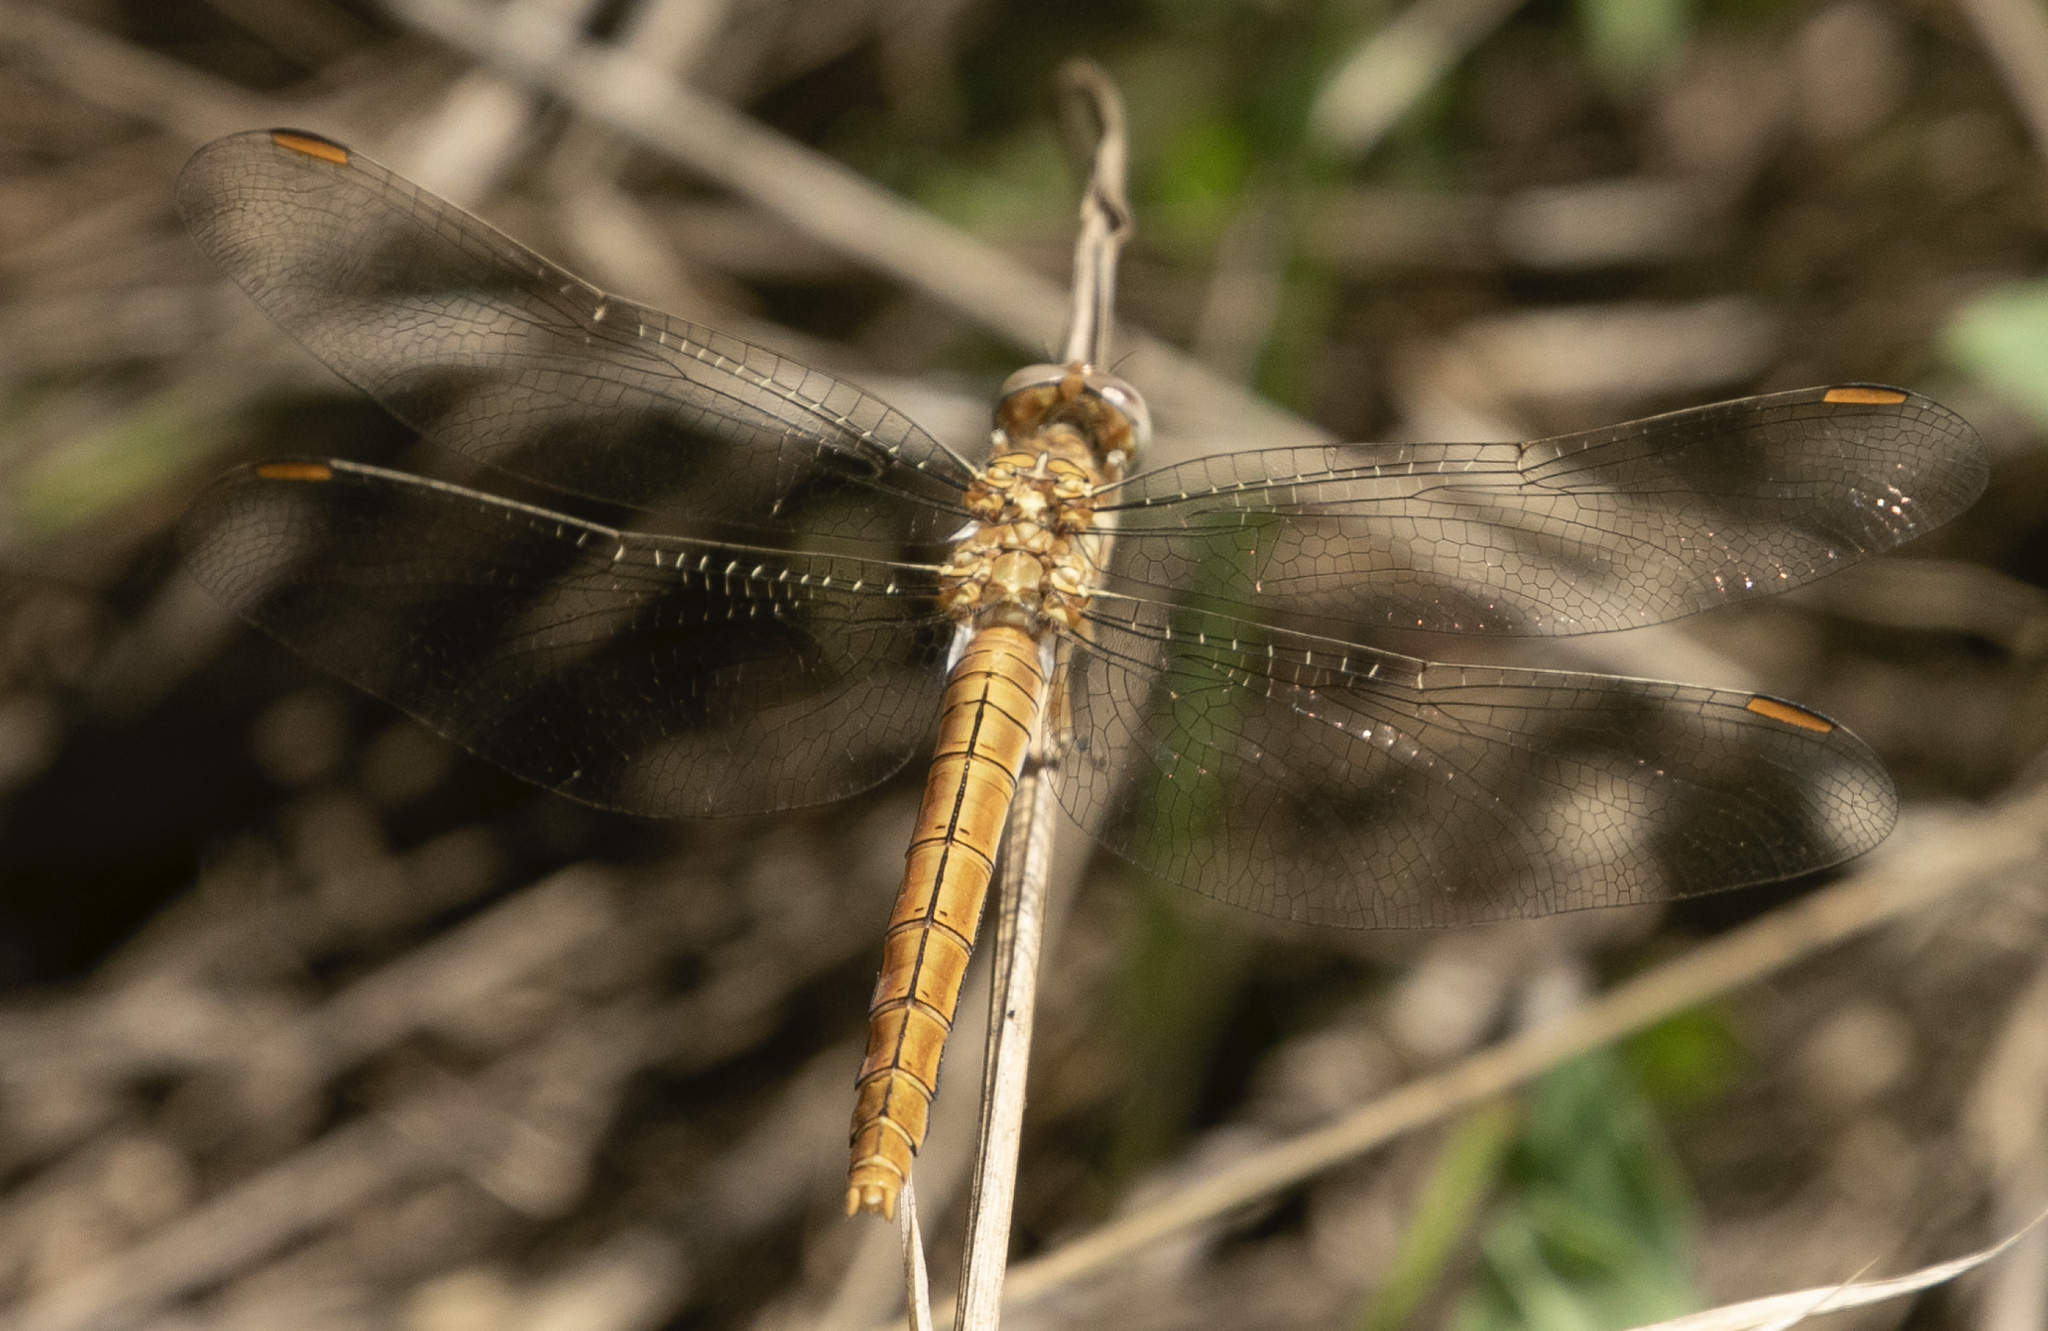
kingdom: Animalia
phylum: Arthropoda
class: Insecta
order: Odonata
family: Libellulidae
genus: Orthetrum
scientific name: Orthetrum brunneum
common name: Southern skimmer
